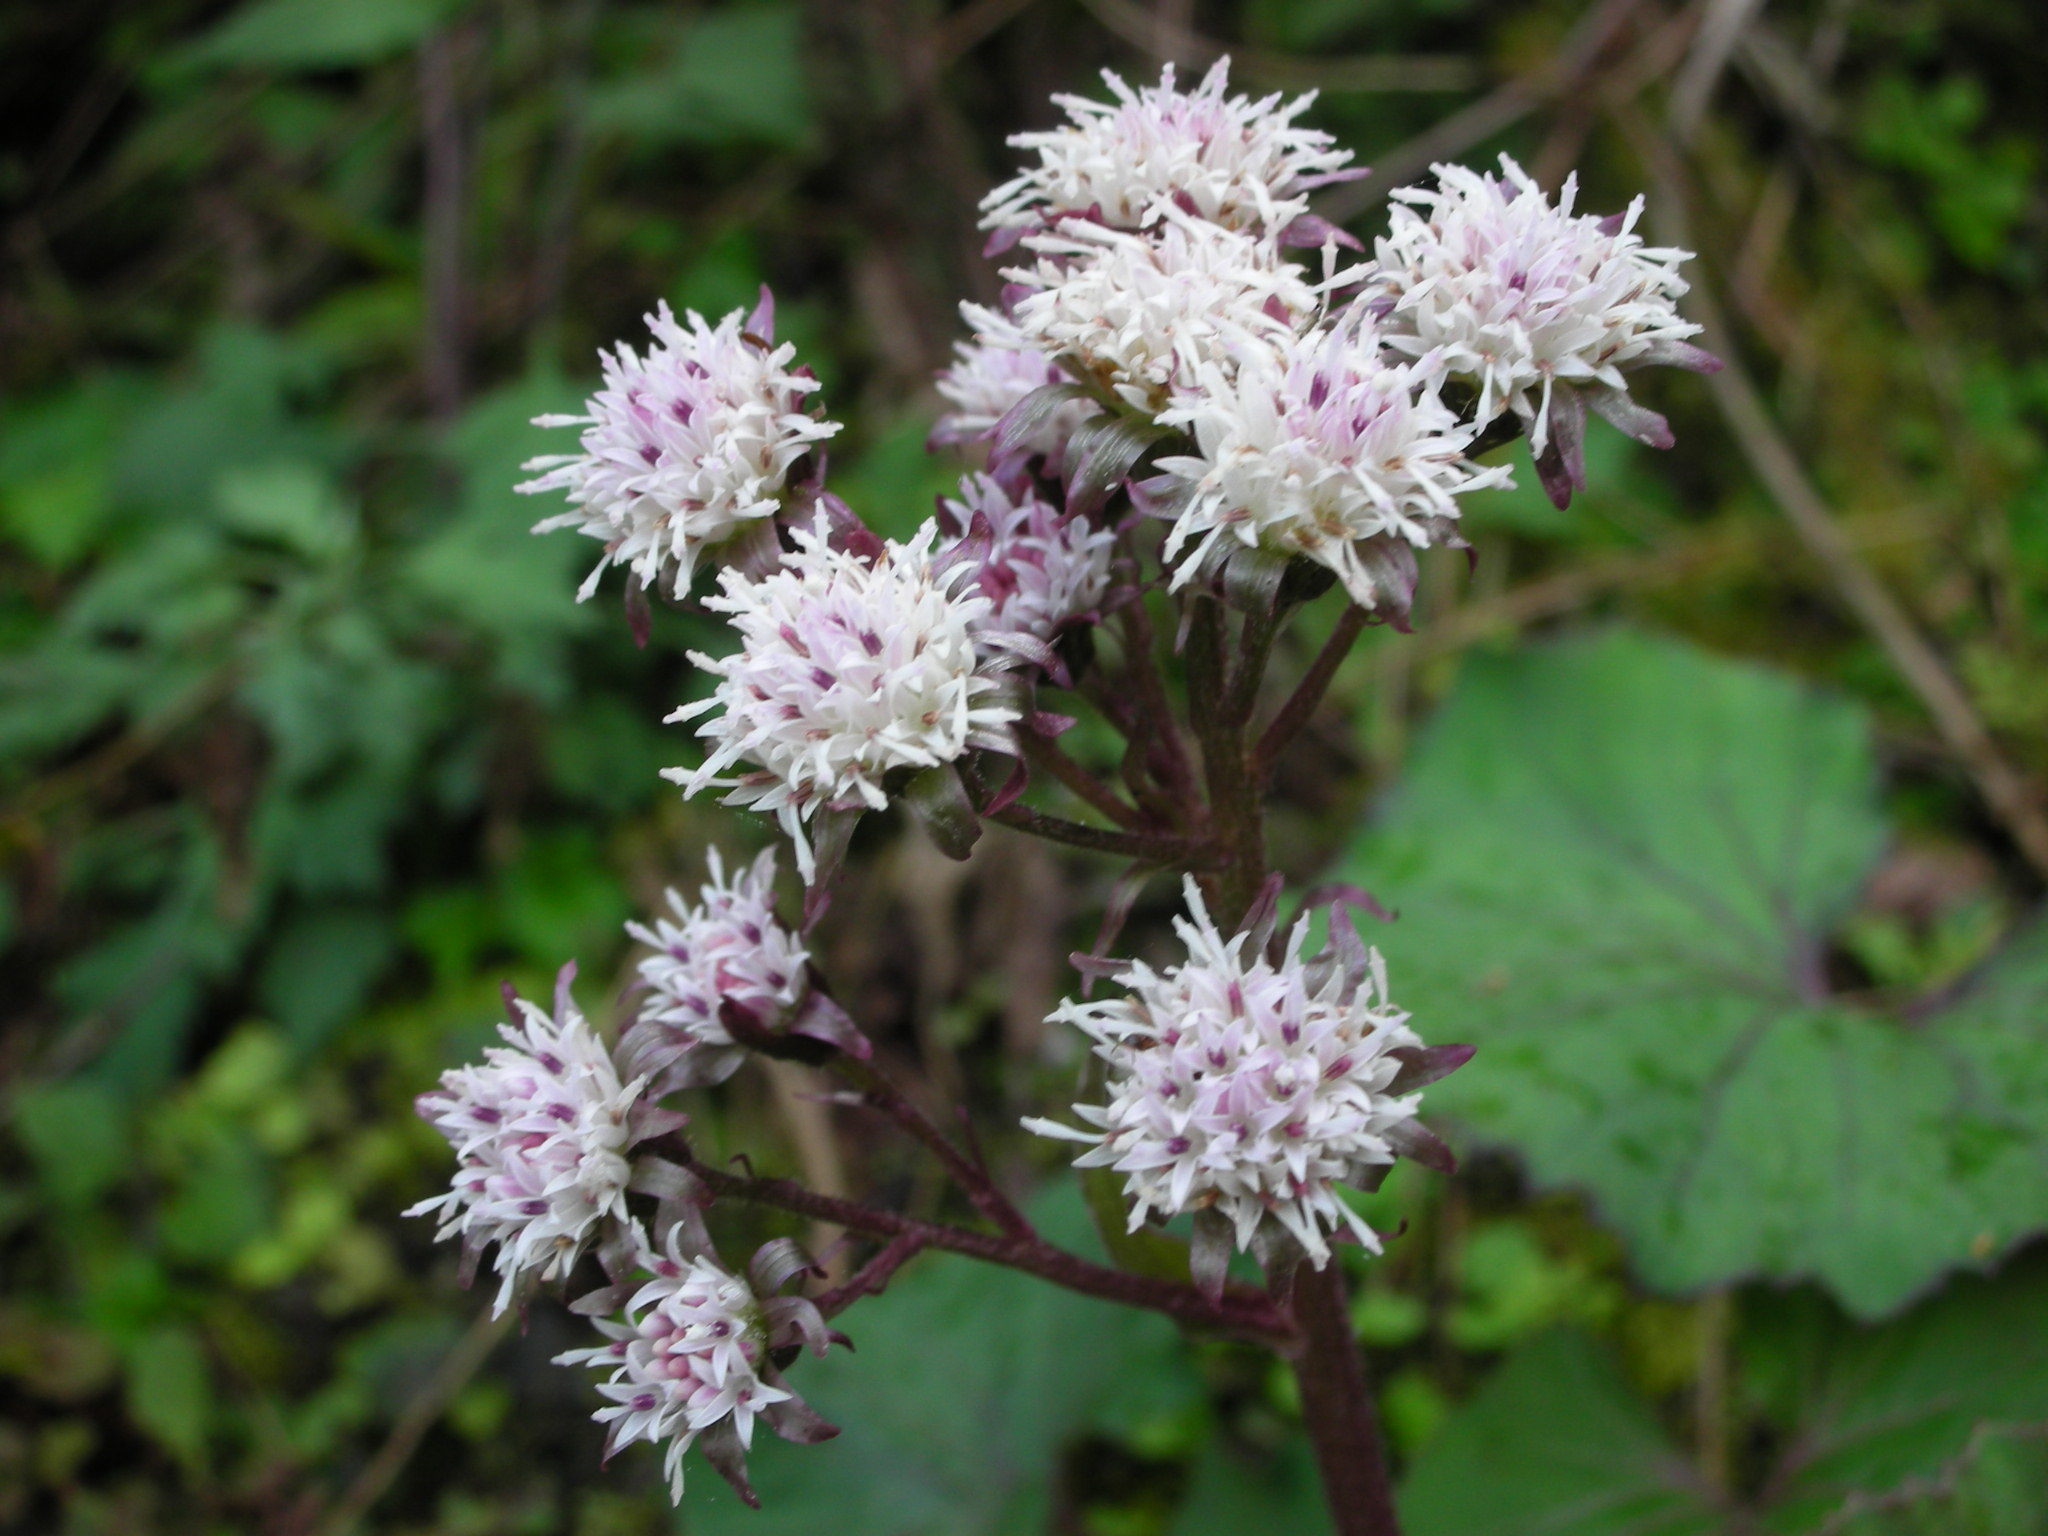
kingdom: Plantae
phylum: Tracheophyta
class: Magnoliopsida
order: Asterales
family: Asteraceae
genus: Petasites
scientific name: Petasites formosanus
